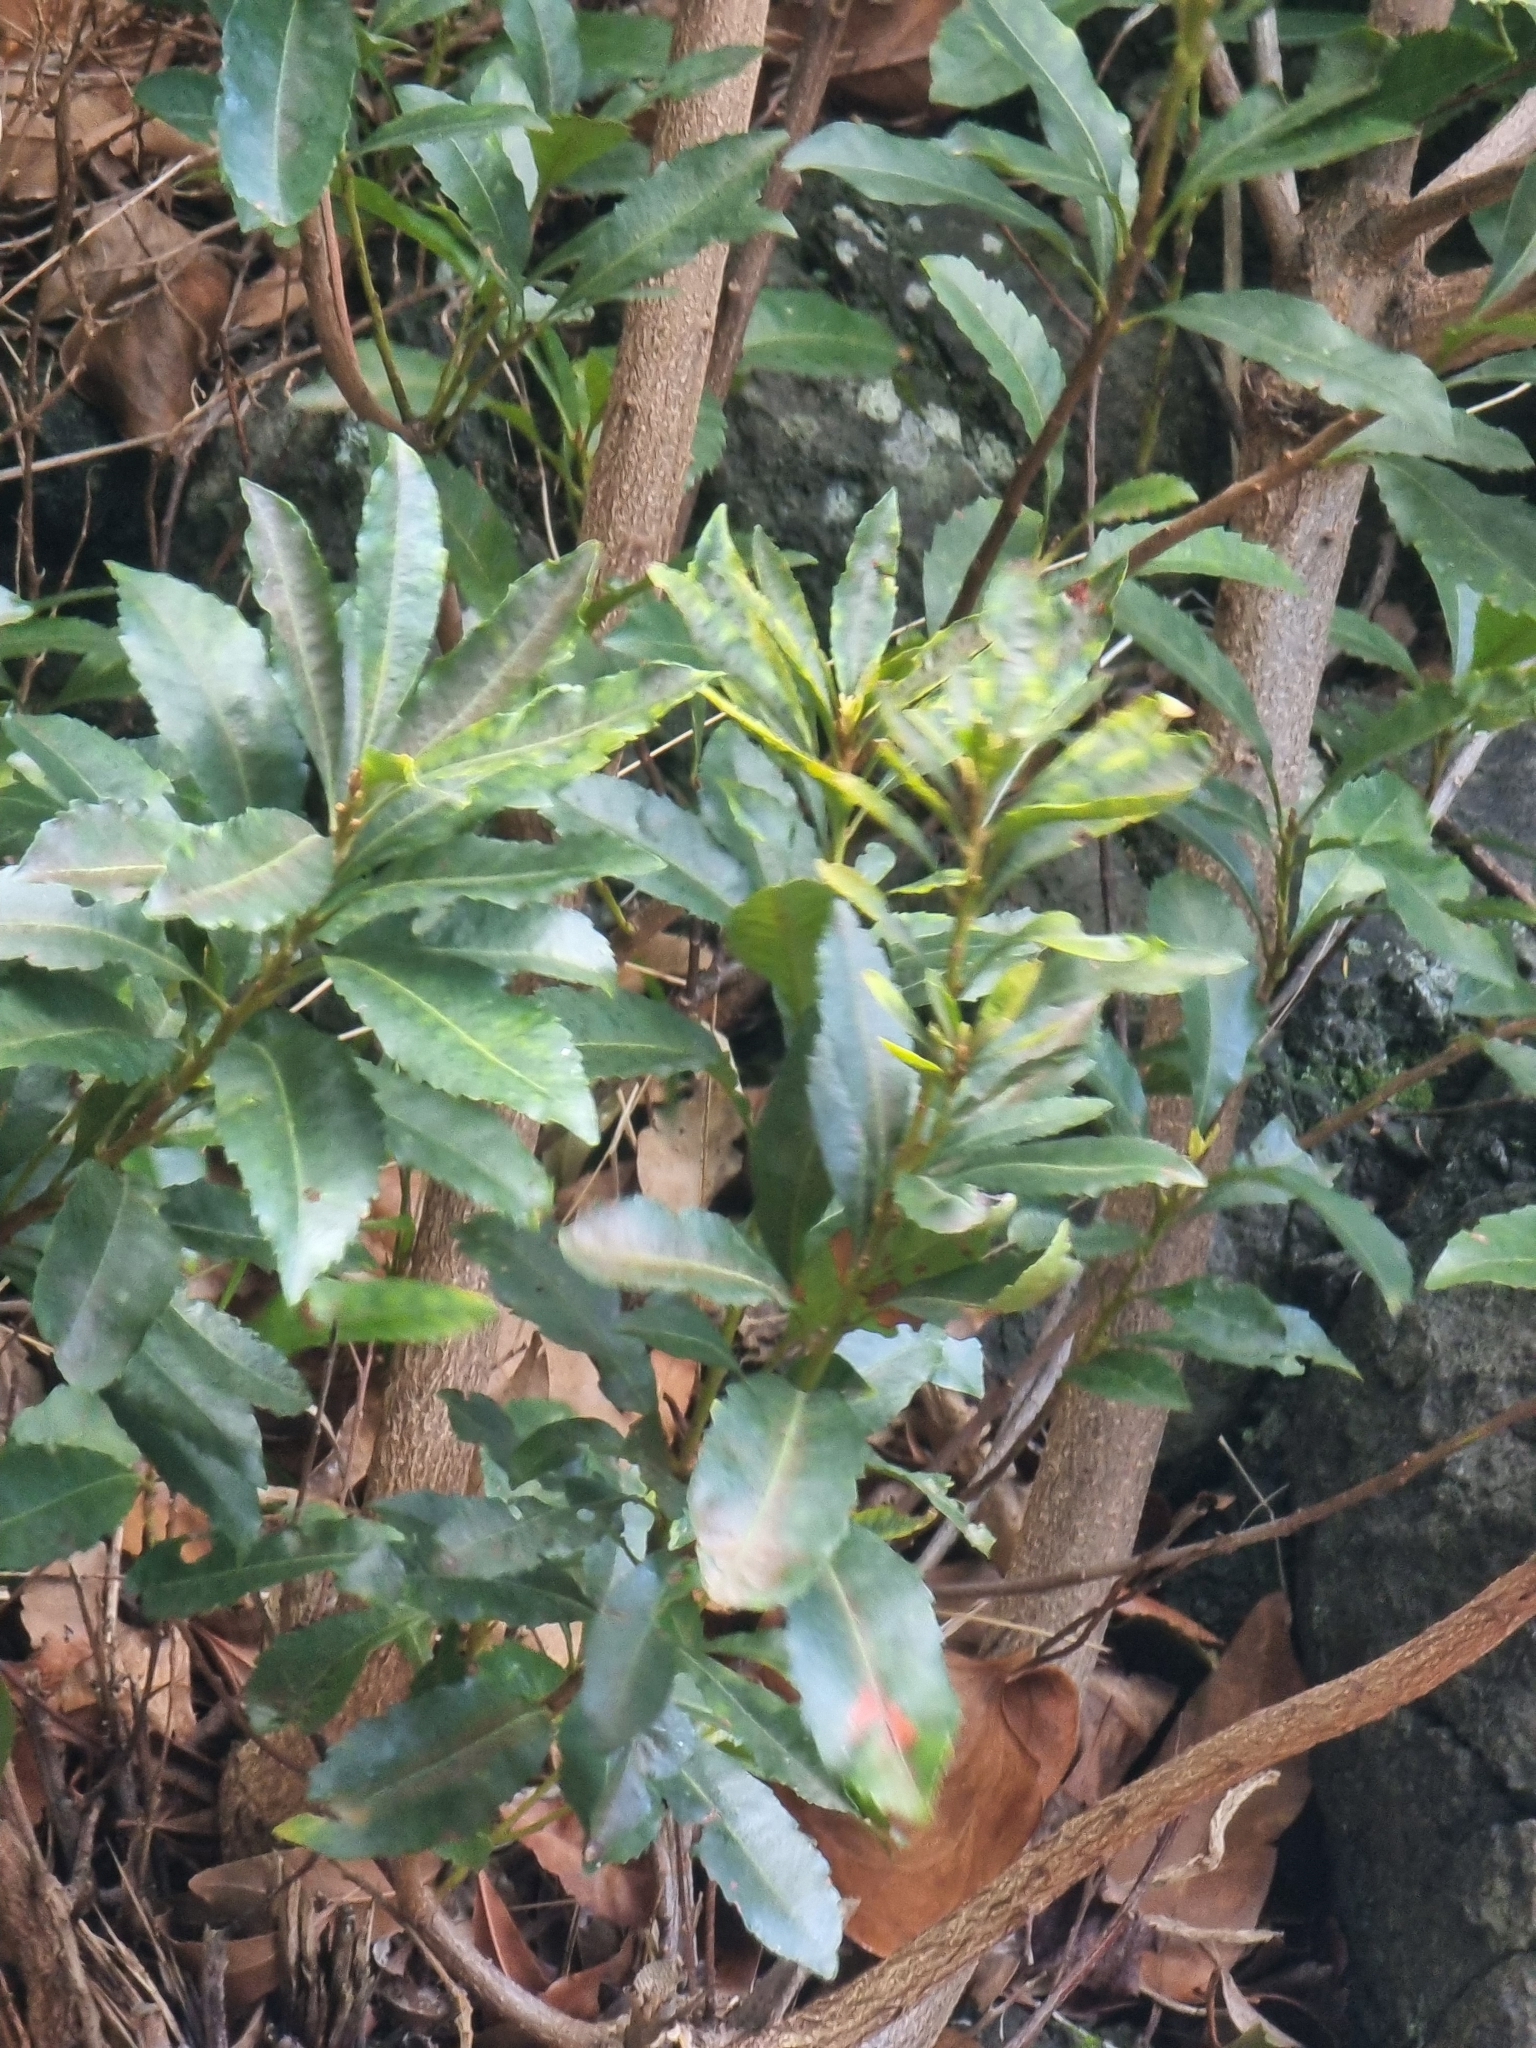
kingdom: Plantae
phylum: Tracheophyta
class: Magnoliopsida
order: Fagales
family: Myricaceae
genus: Morella
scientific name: Morella faya
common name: Firetree
